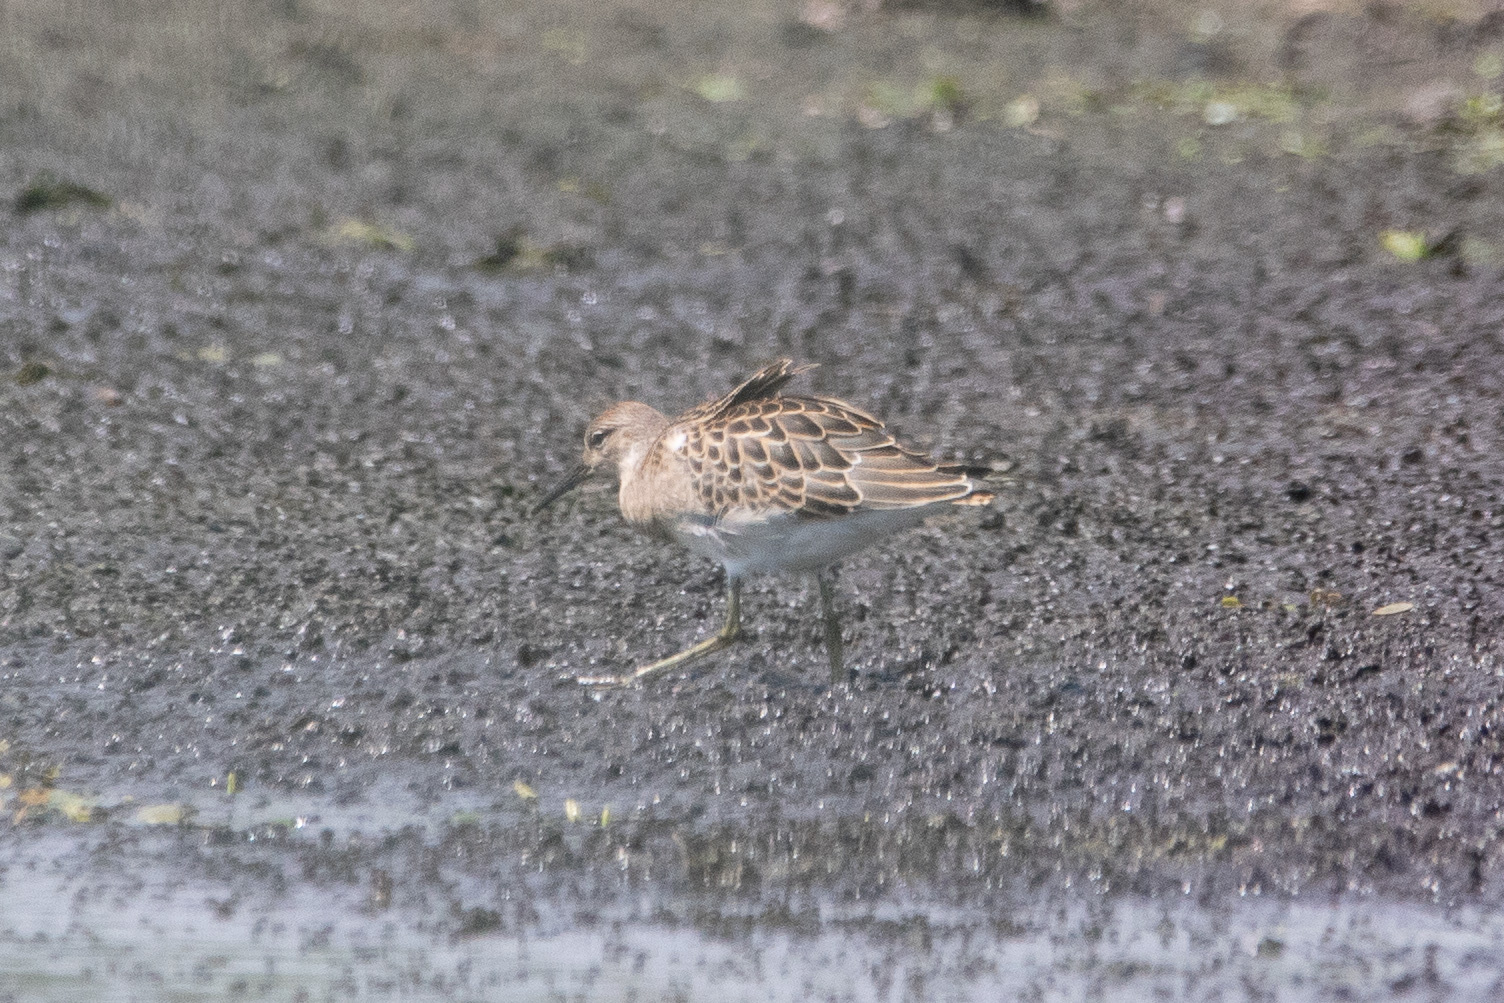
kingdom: Animalia
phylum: Chordata
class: Aves
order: Charadriiformes
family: Scolopacidae
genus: Calidris
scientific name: Calidris pugnax
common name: Ruff
